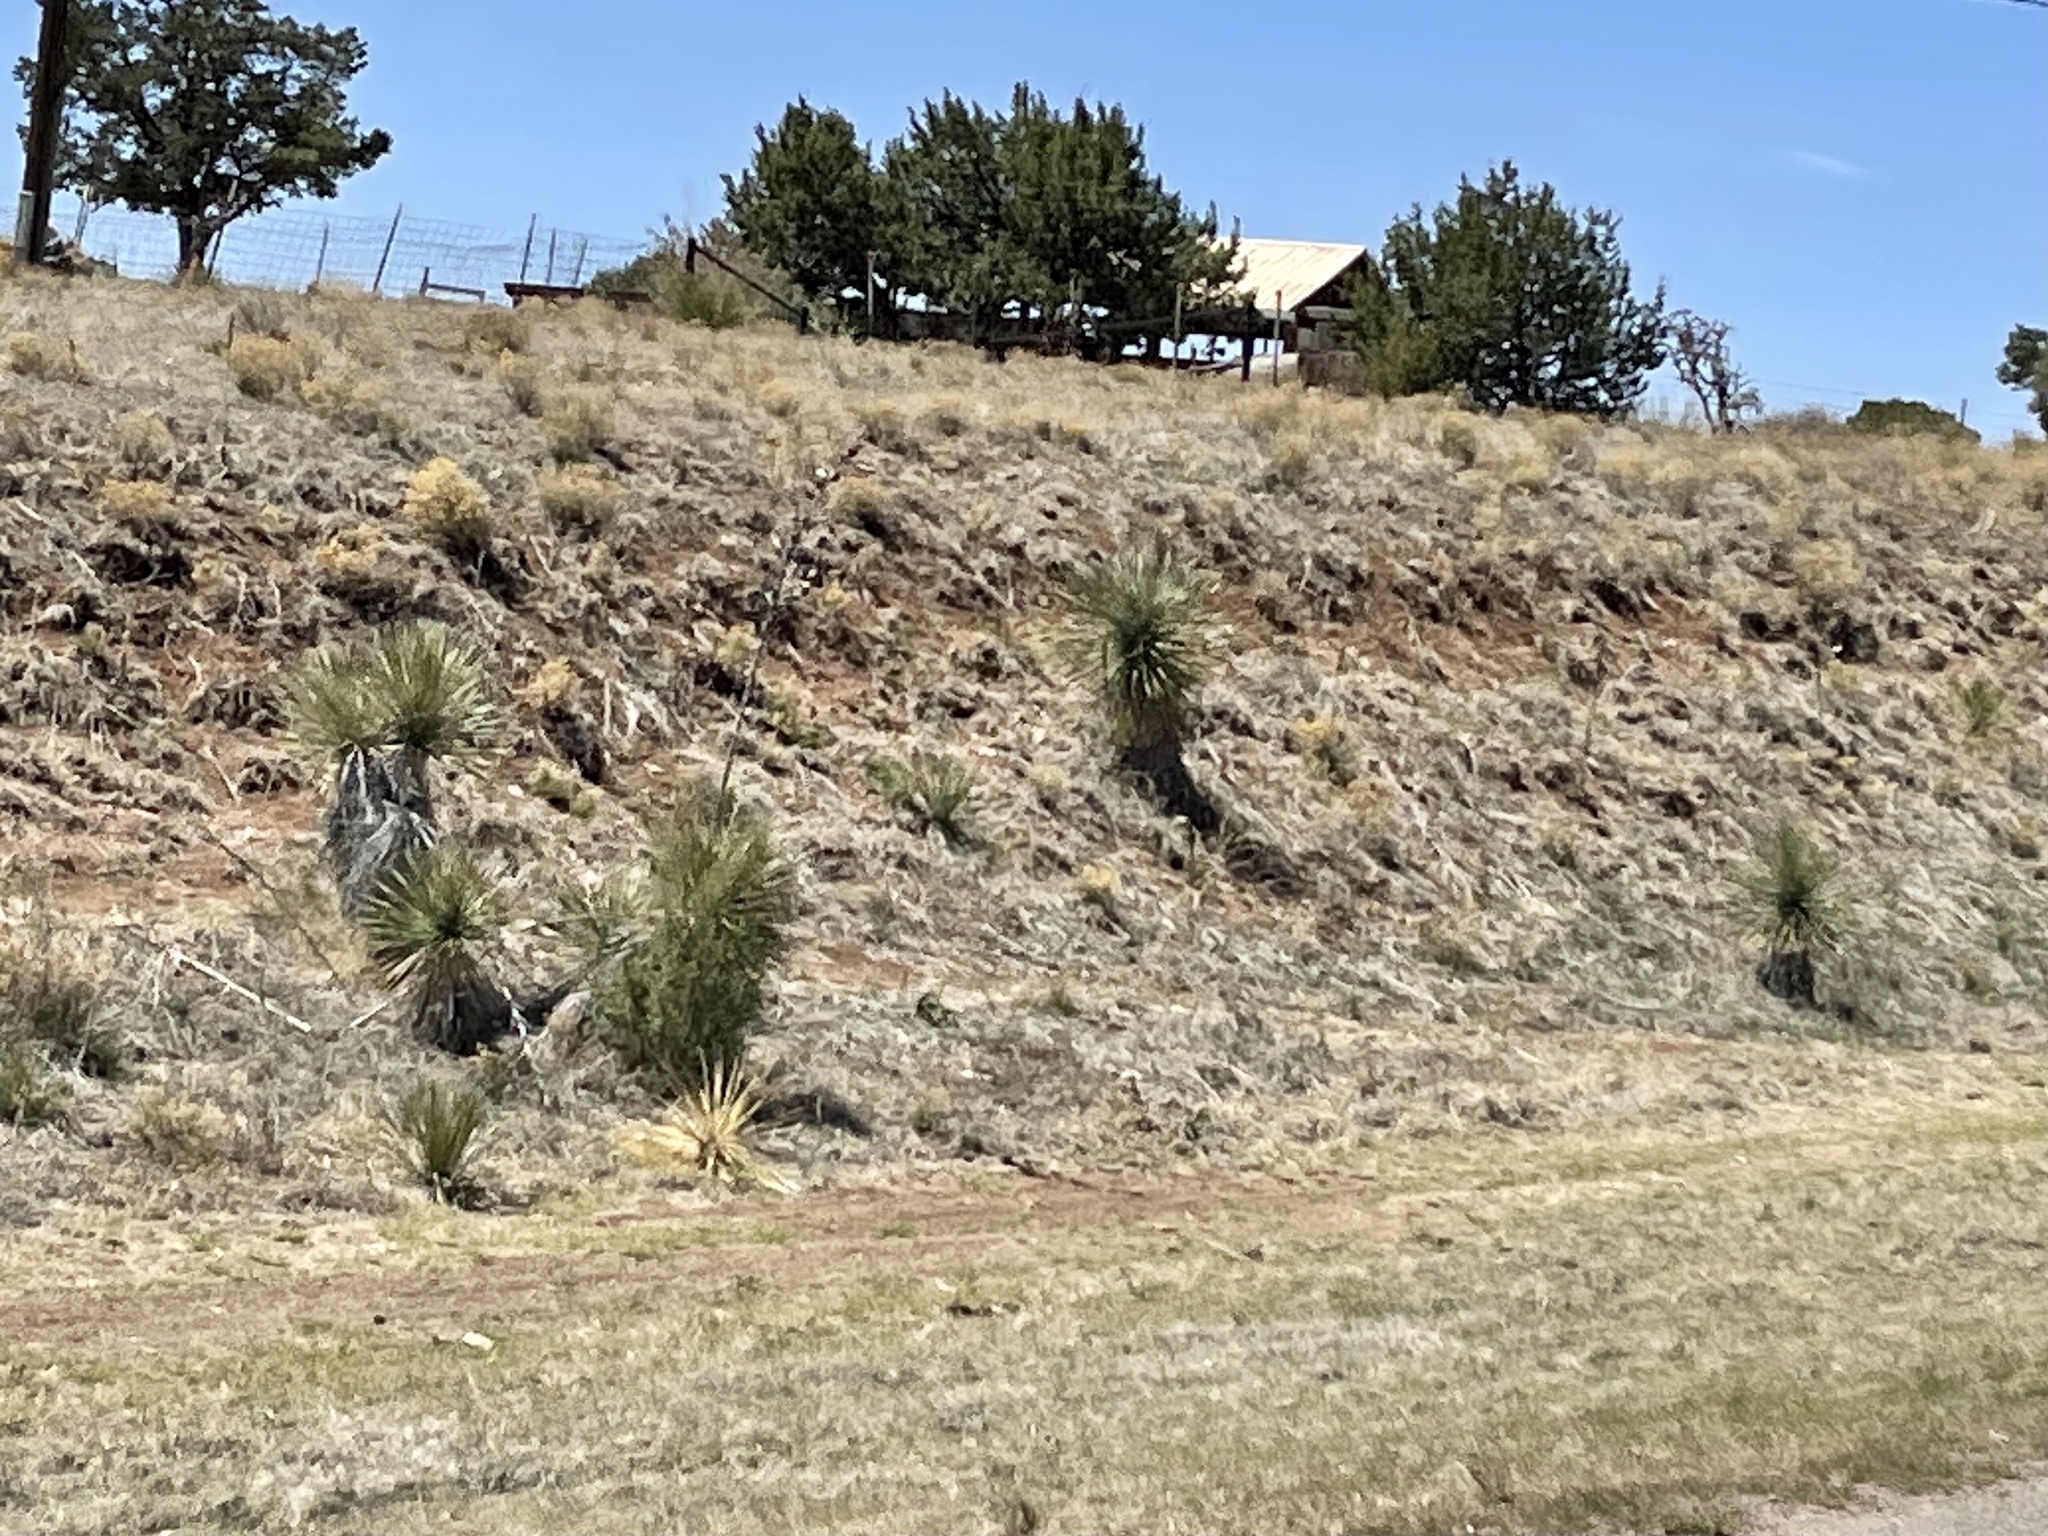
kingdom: Plantae
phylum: Tracheophyta
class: Liliopsida
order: Asparagales
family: Asparagaceae
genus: Yucca
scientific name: Yucca elata
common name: Palmella
